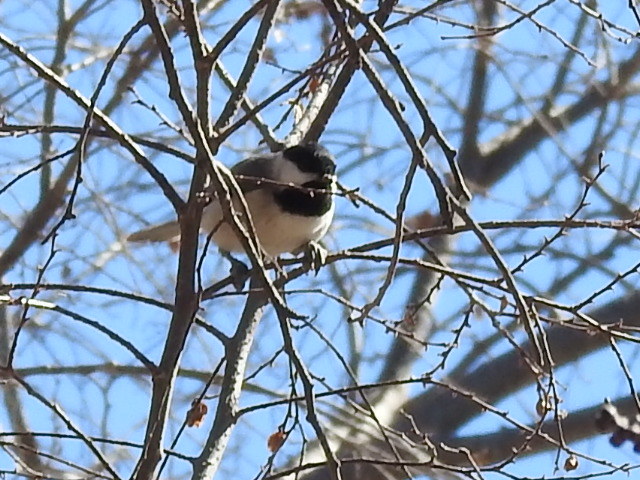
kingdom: Animalia
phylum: Chordata
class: Aves
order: Passeriformes
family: Paridae
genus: Poecile
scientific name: Poecile carolinensis
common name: Carolina chickadee
